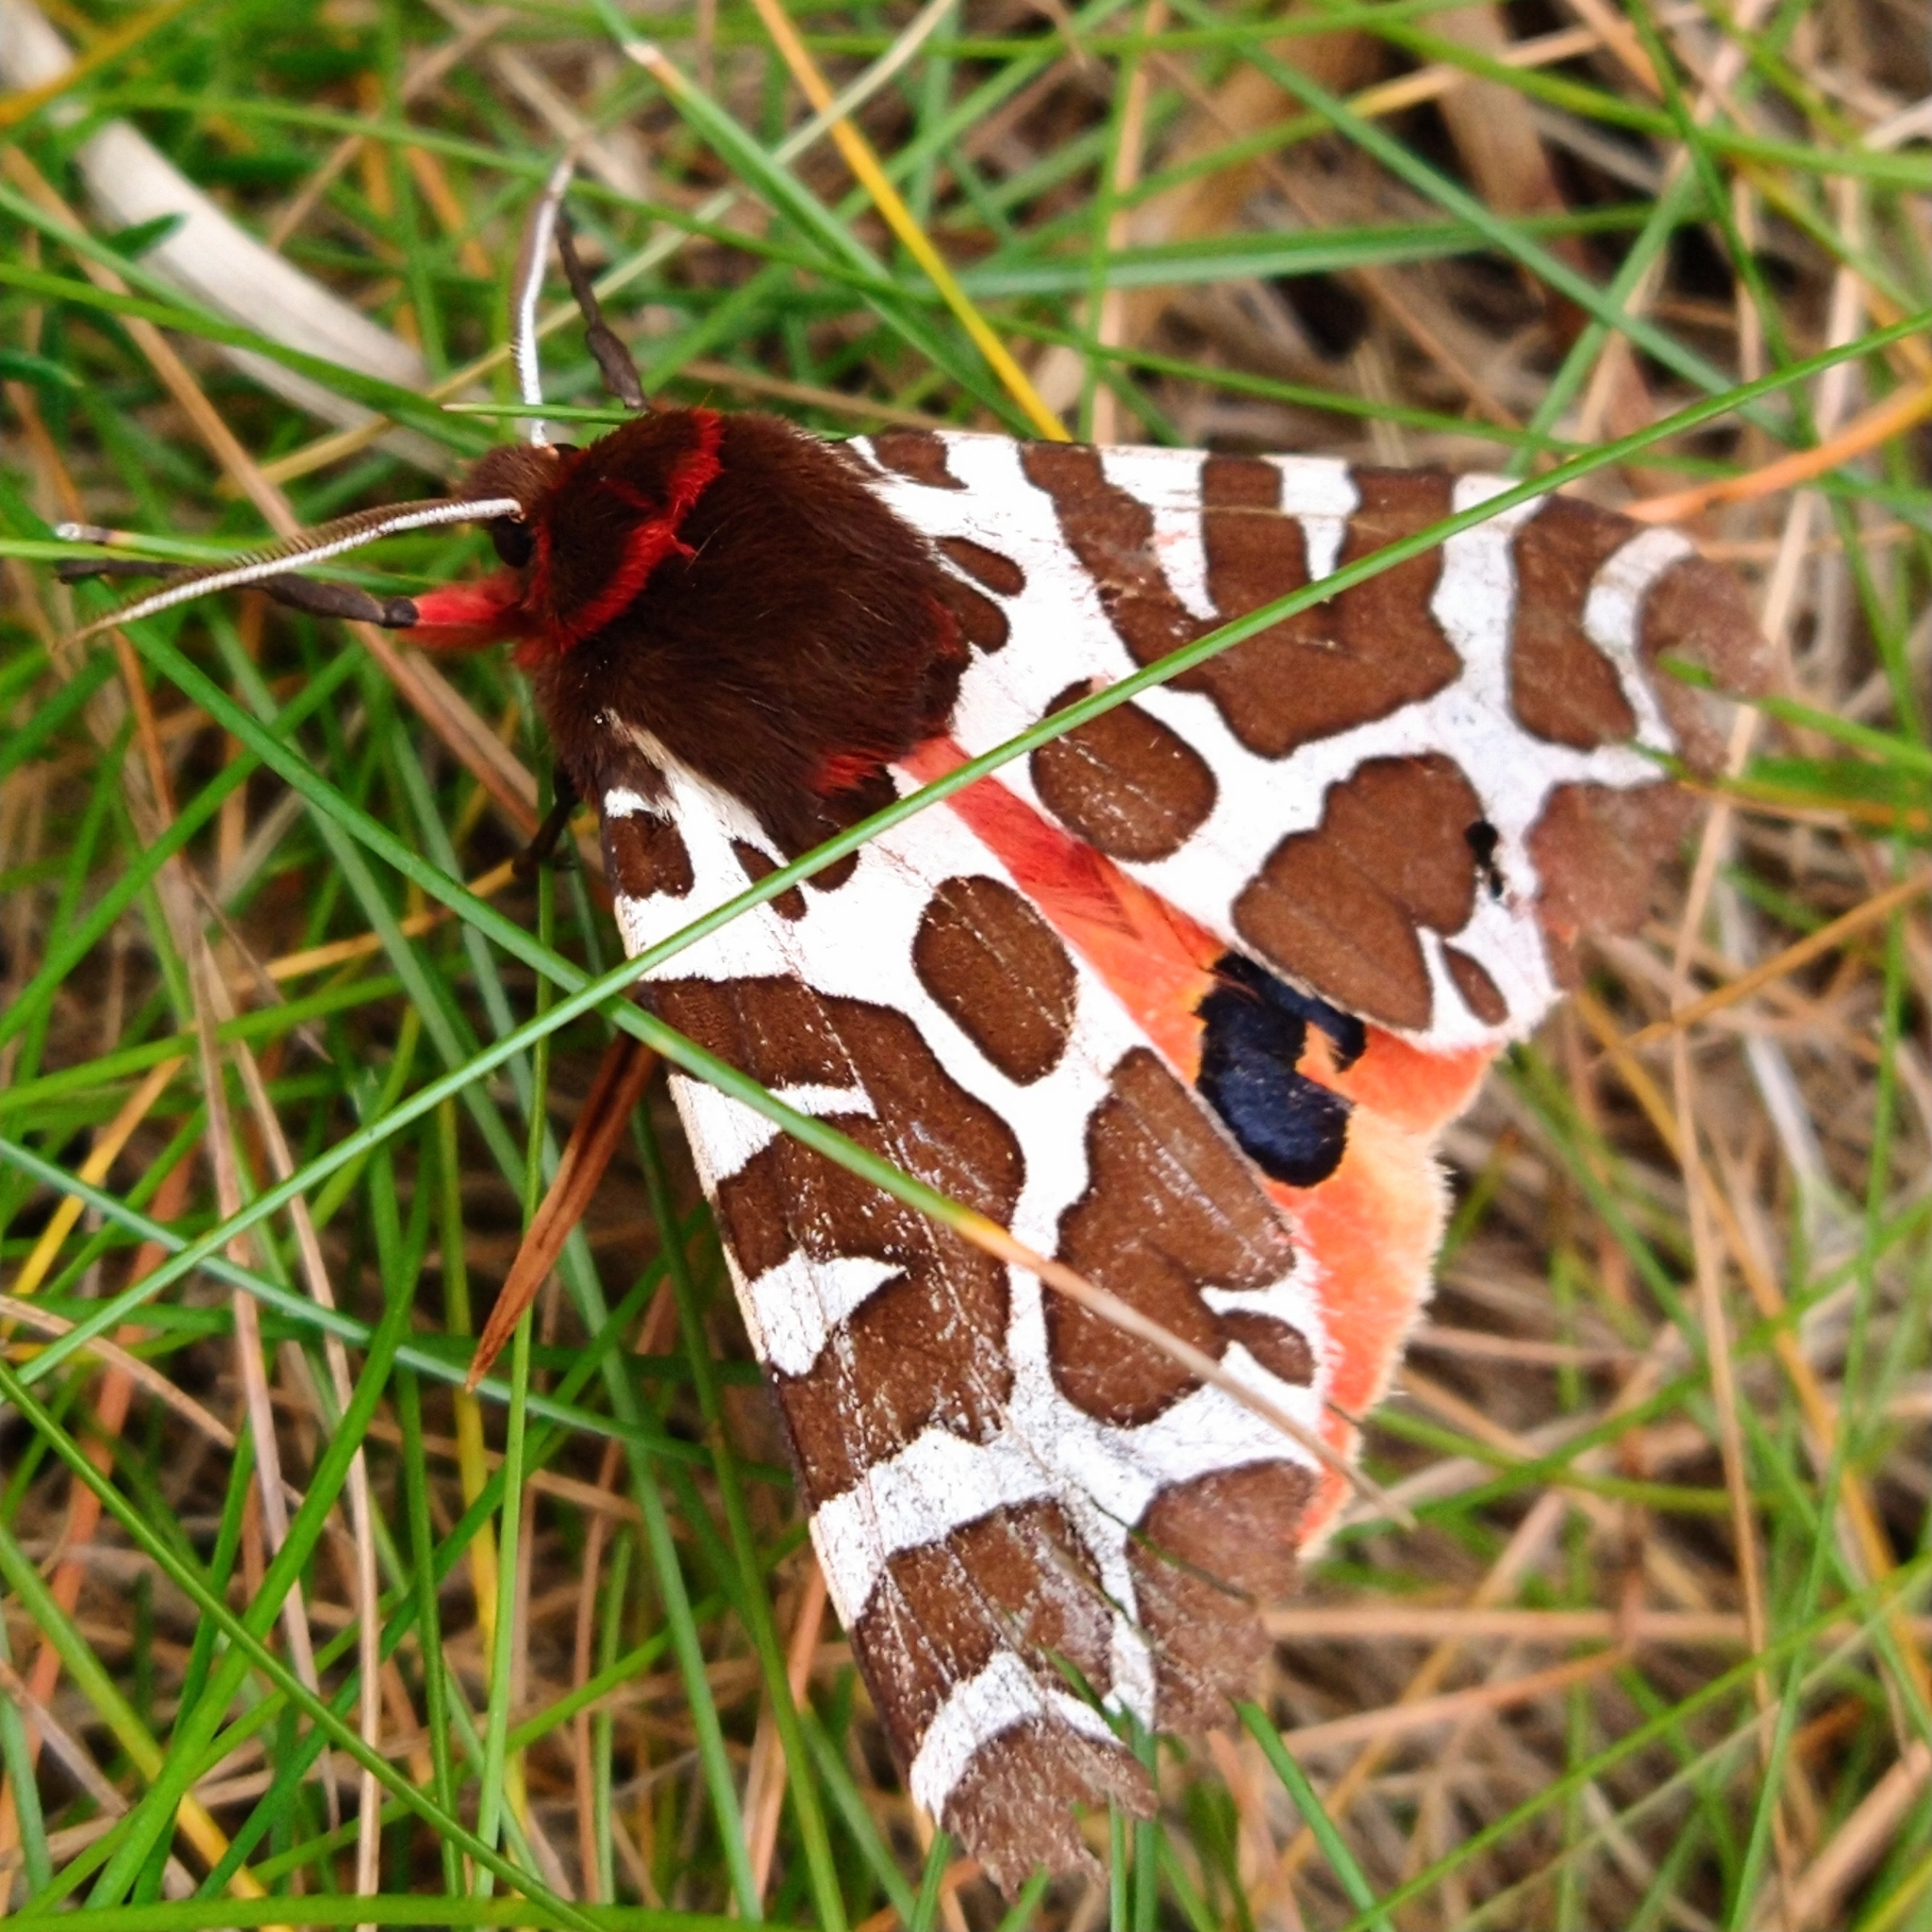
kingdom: Animalia
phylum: Arthropoda
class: Insecta
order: Lepidoptera
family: Erebidae
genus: Arctia
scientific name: Arctia caja
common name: Garden tiger
